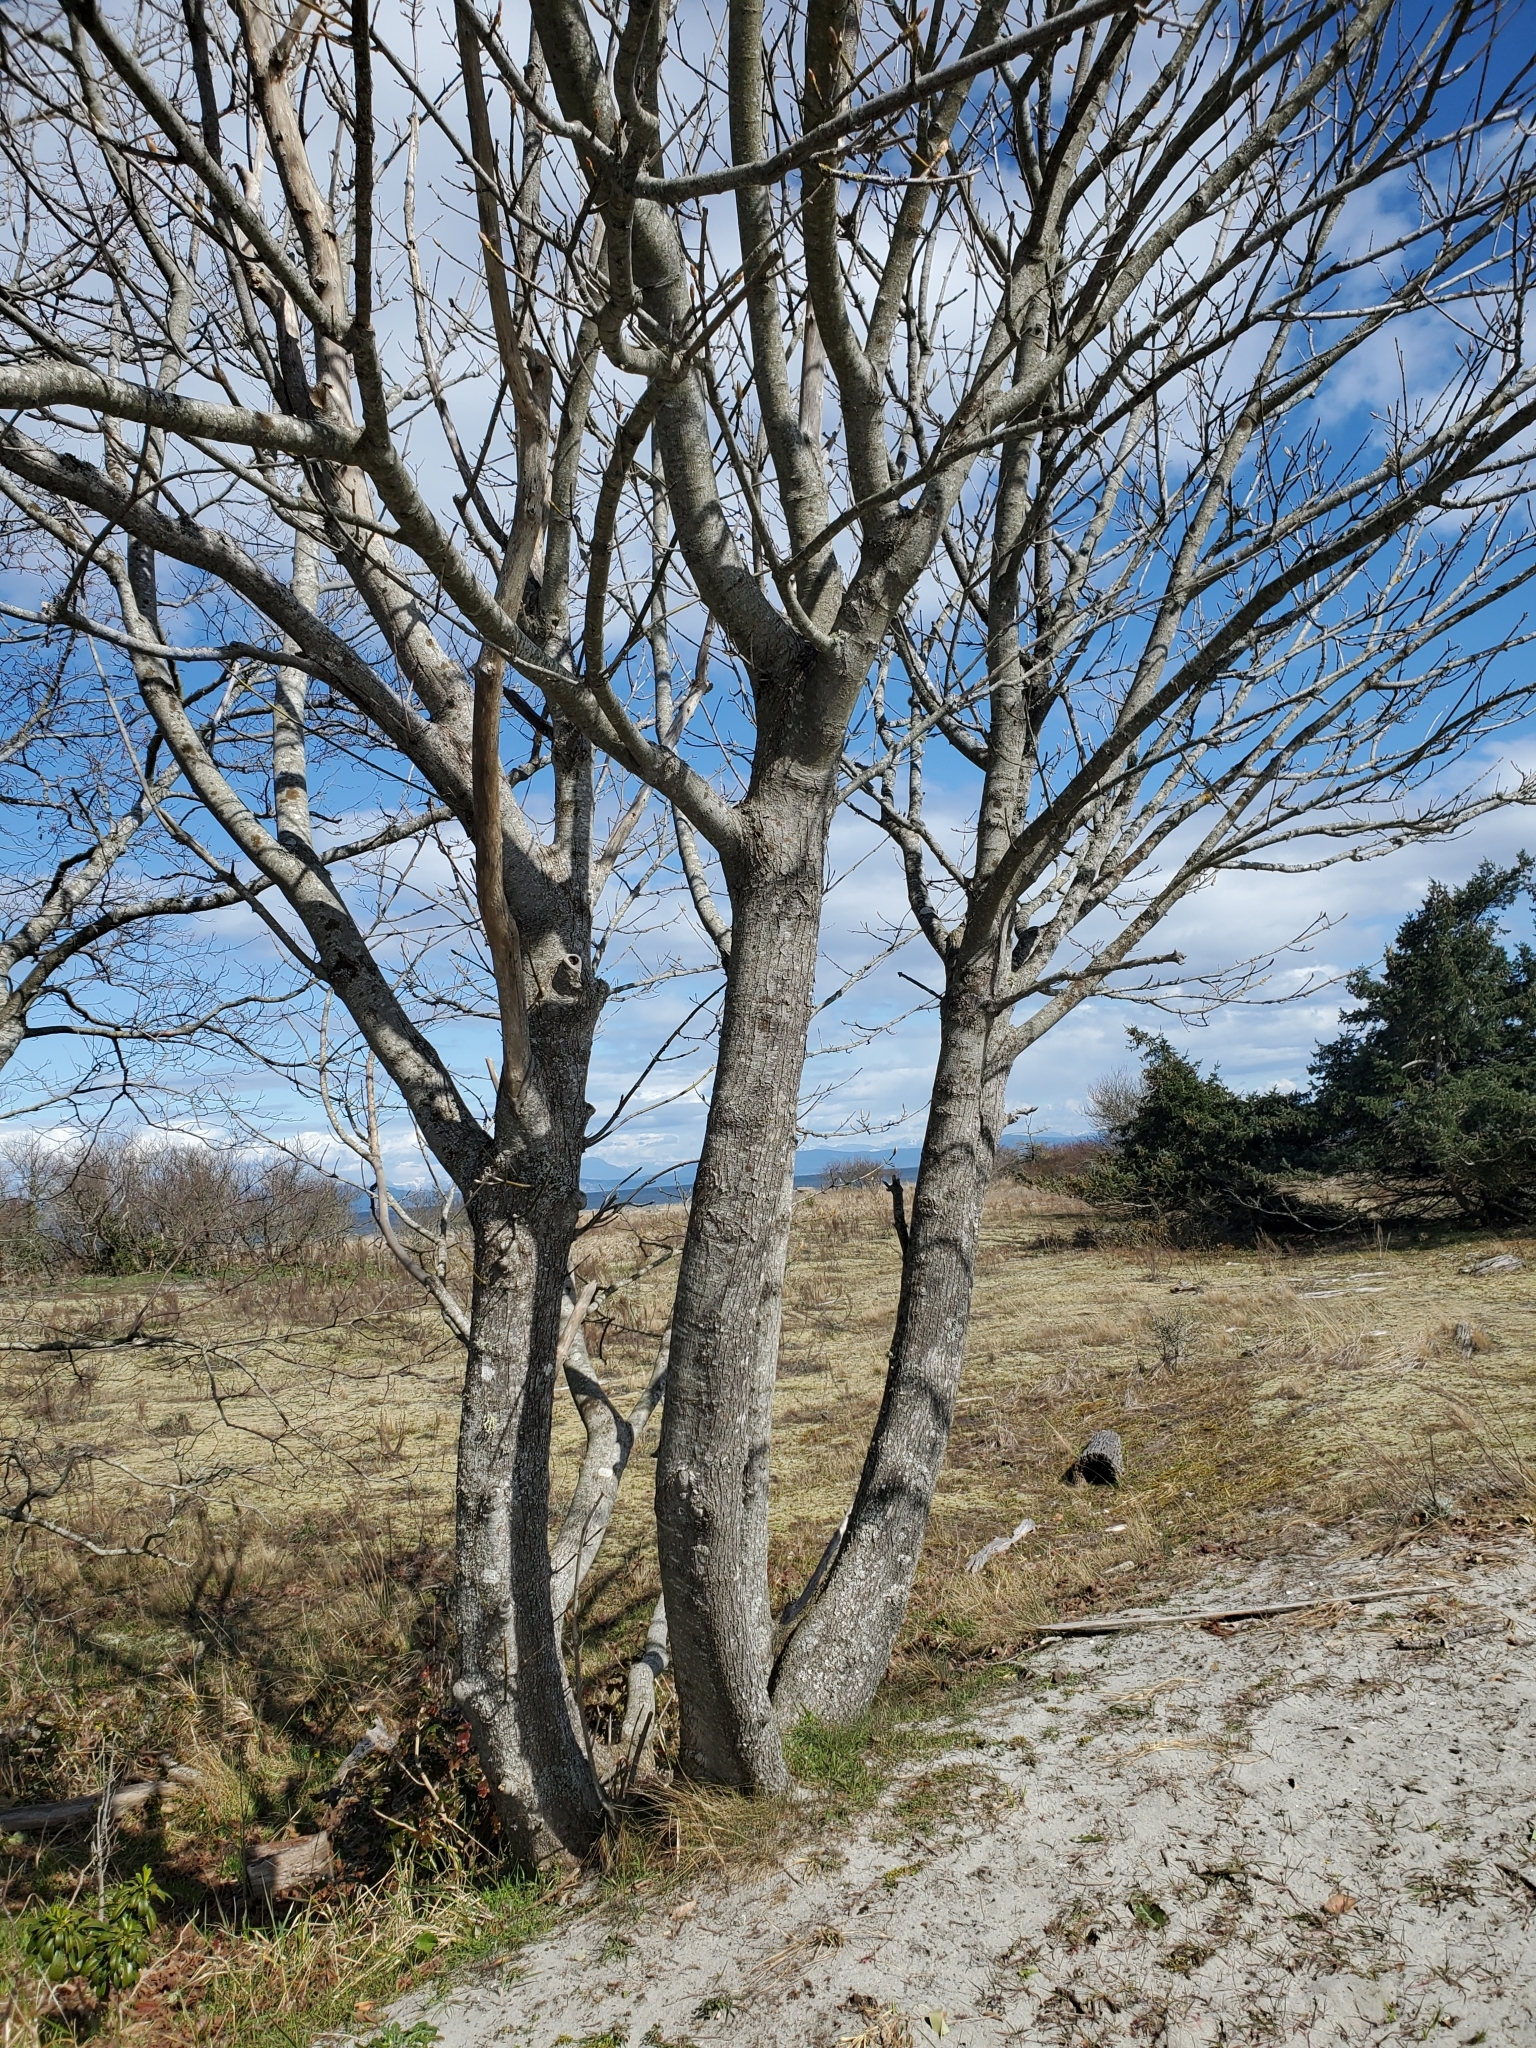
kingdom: Plantae
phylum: Tracheophyta
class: Magnoliopsida
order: Sapindales
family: Sapindaceae
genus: Acer
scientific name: Acer macrophyllum
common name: Oregon maple
